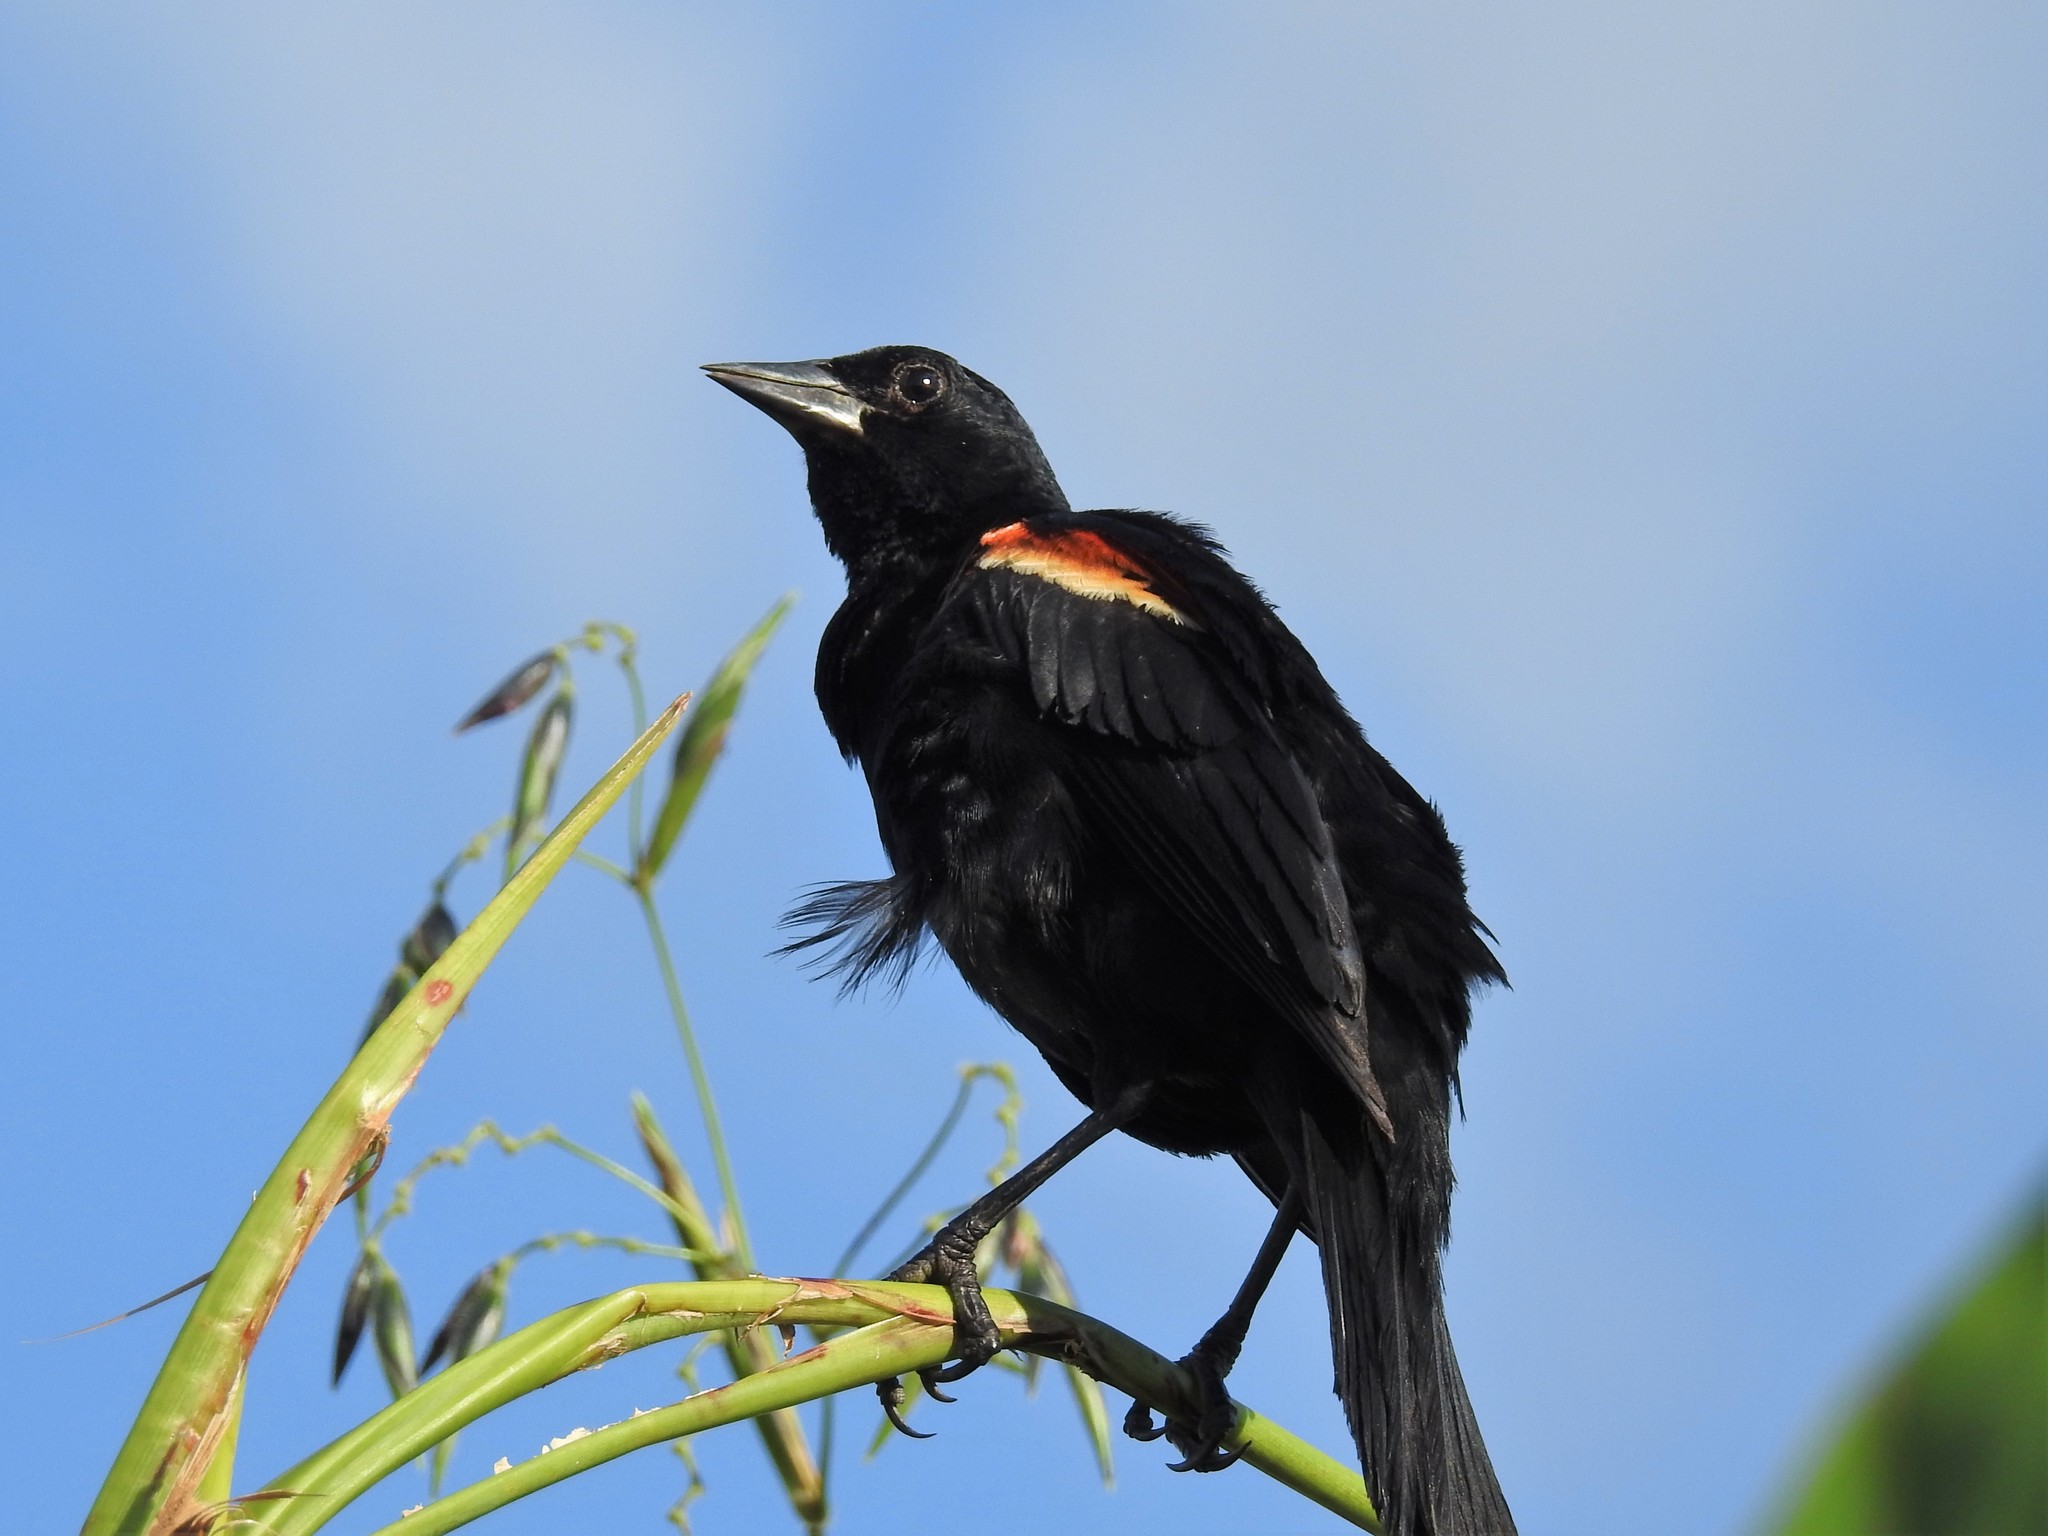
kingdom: Animalia
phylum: Chordata
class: Aves
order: Passeriformes
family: Icteridae
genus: Agelaius
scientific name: Agelaius phoeniceus
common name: Red-winged blackbird
